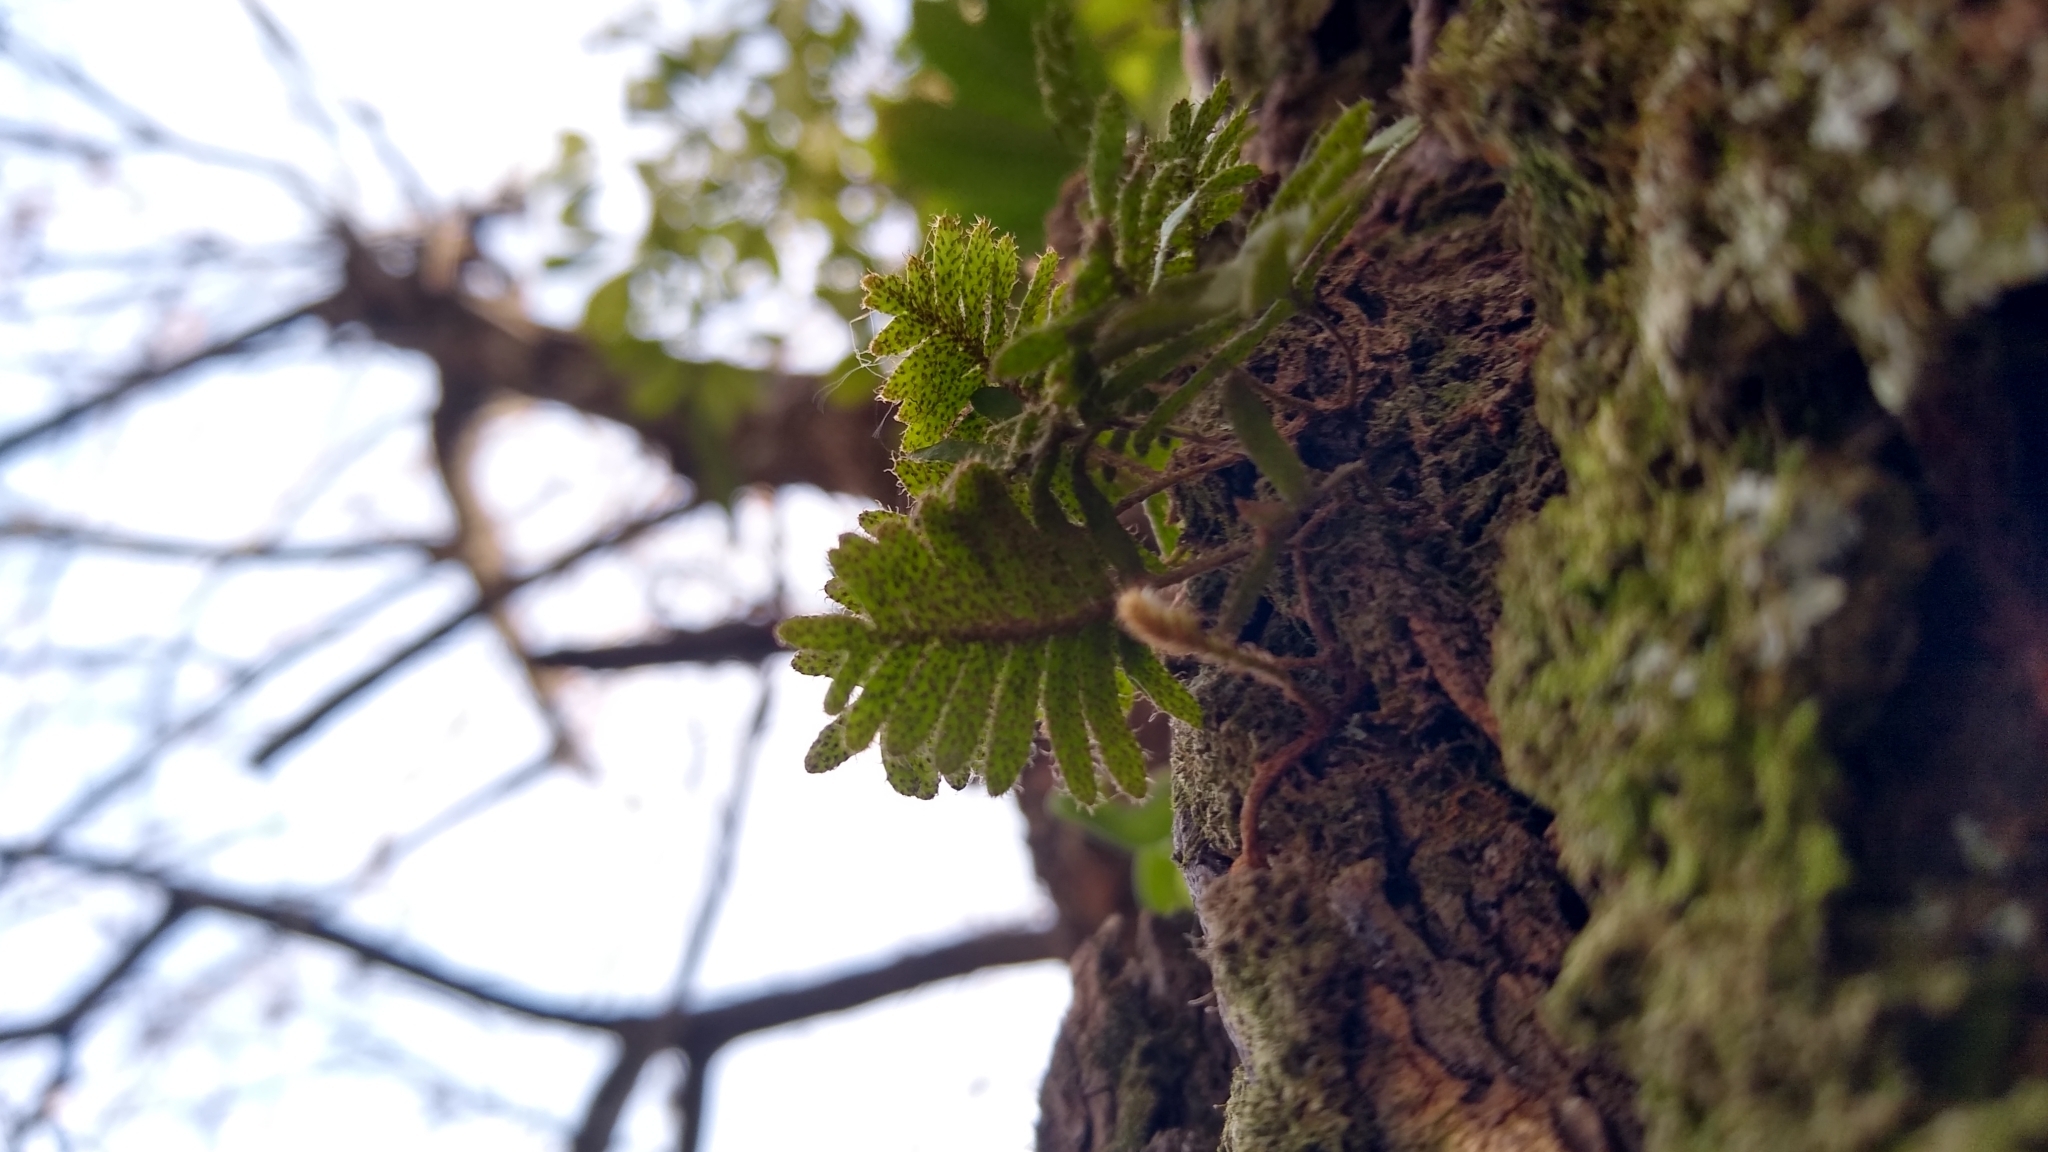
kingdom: Plantae
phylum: Tracheophyta
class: Polypodiopsida
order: Polypodiales
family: Polypodiaceae
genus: Pleopeltis
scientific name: Pleopeltis minima
